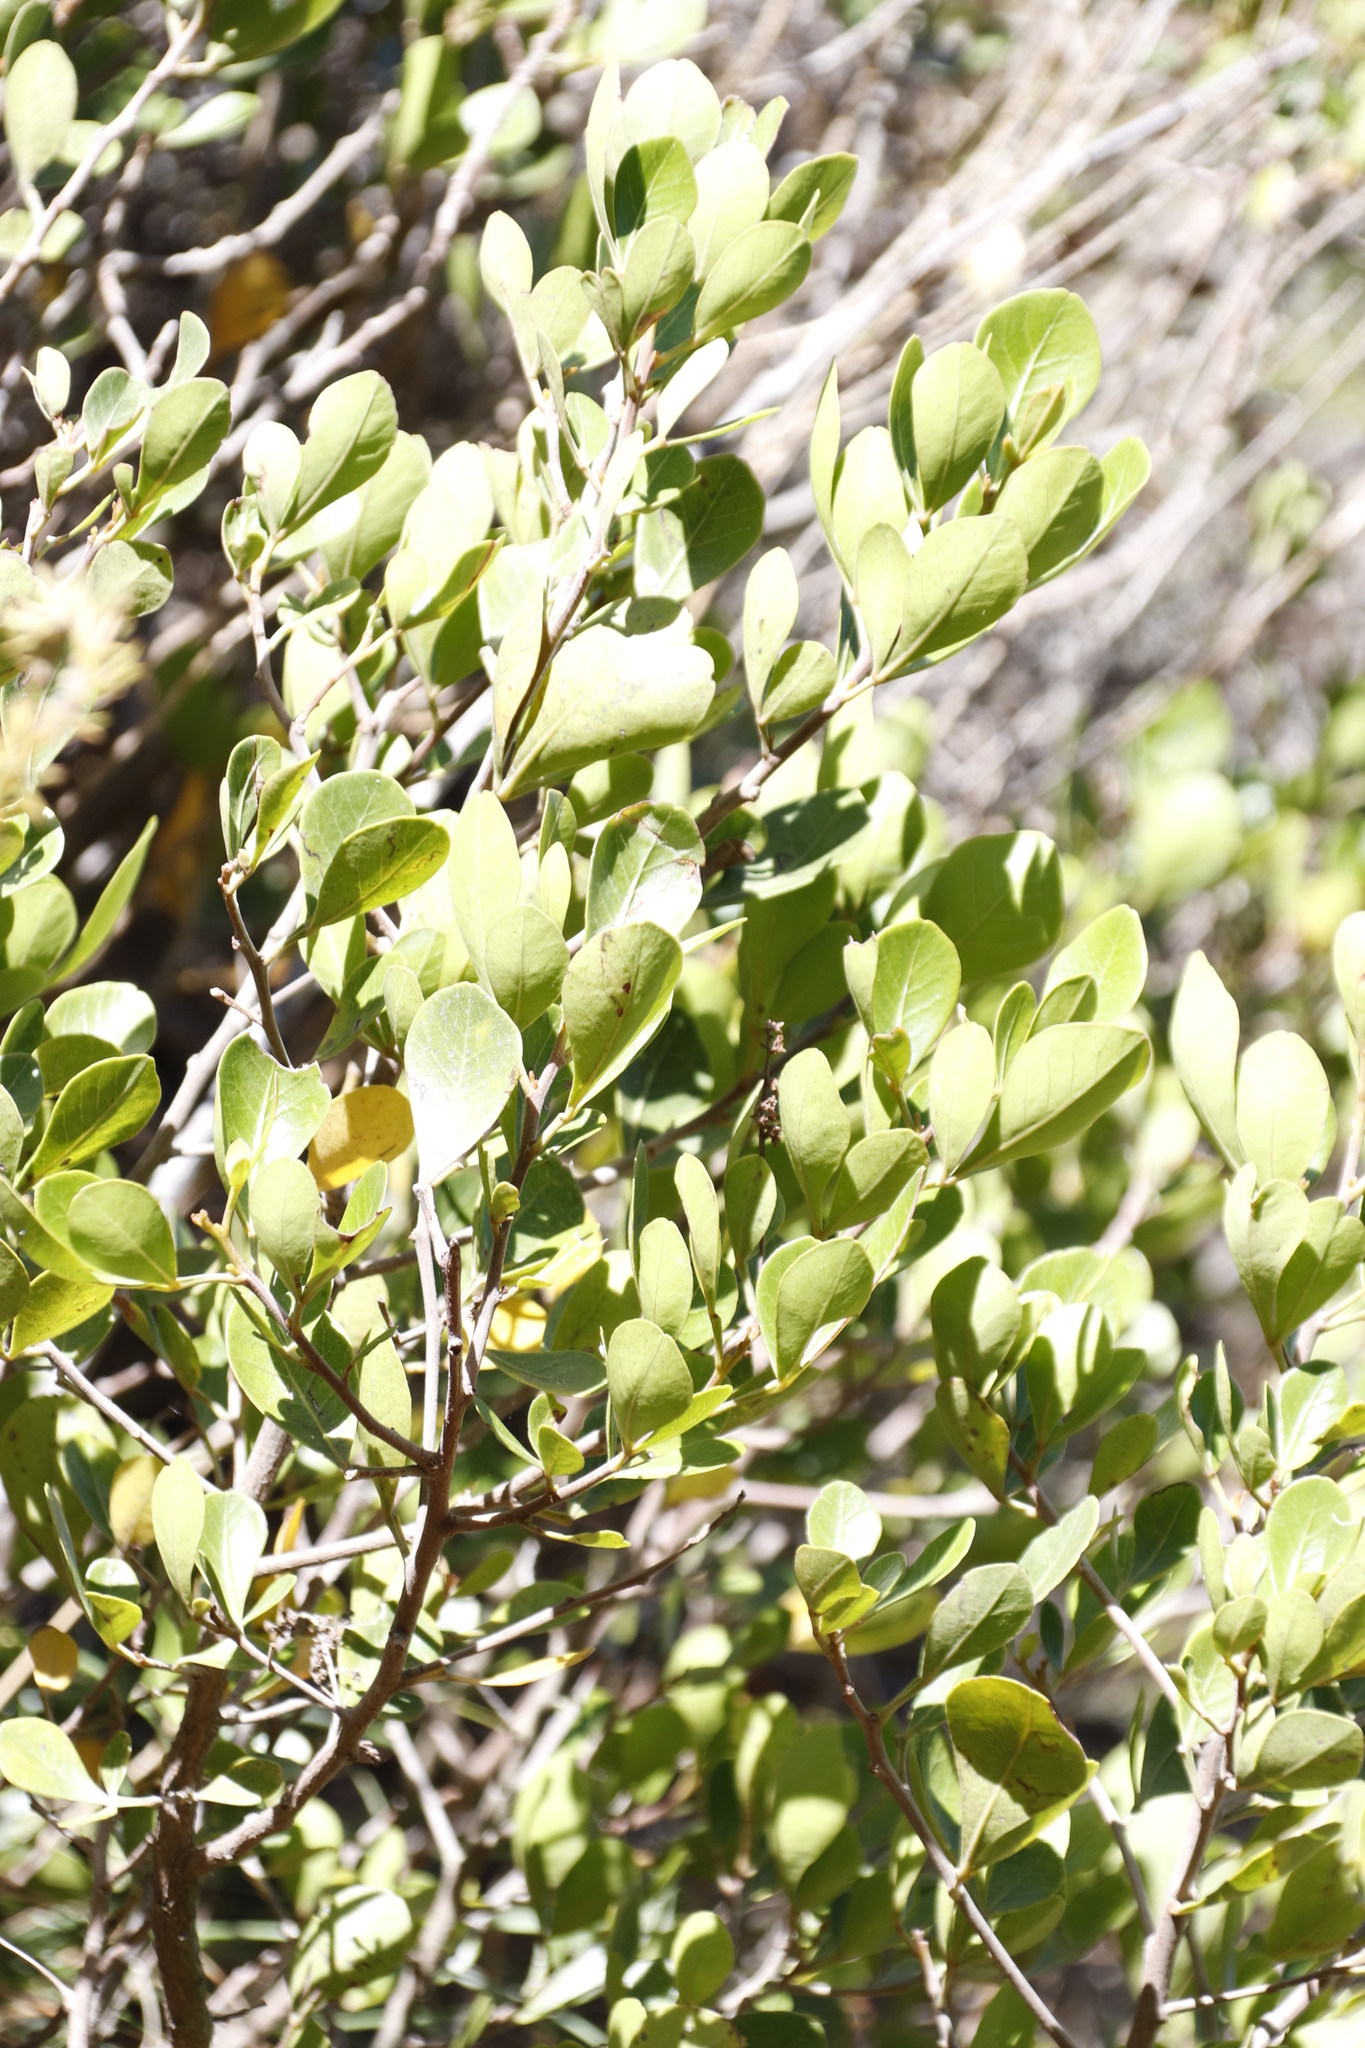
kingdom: Plantae
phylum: Tracheophyta
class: Magnoliopsida
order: Sapindales
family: Anacardiaceae
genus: Searsia
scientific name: Searsia lucida
